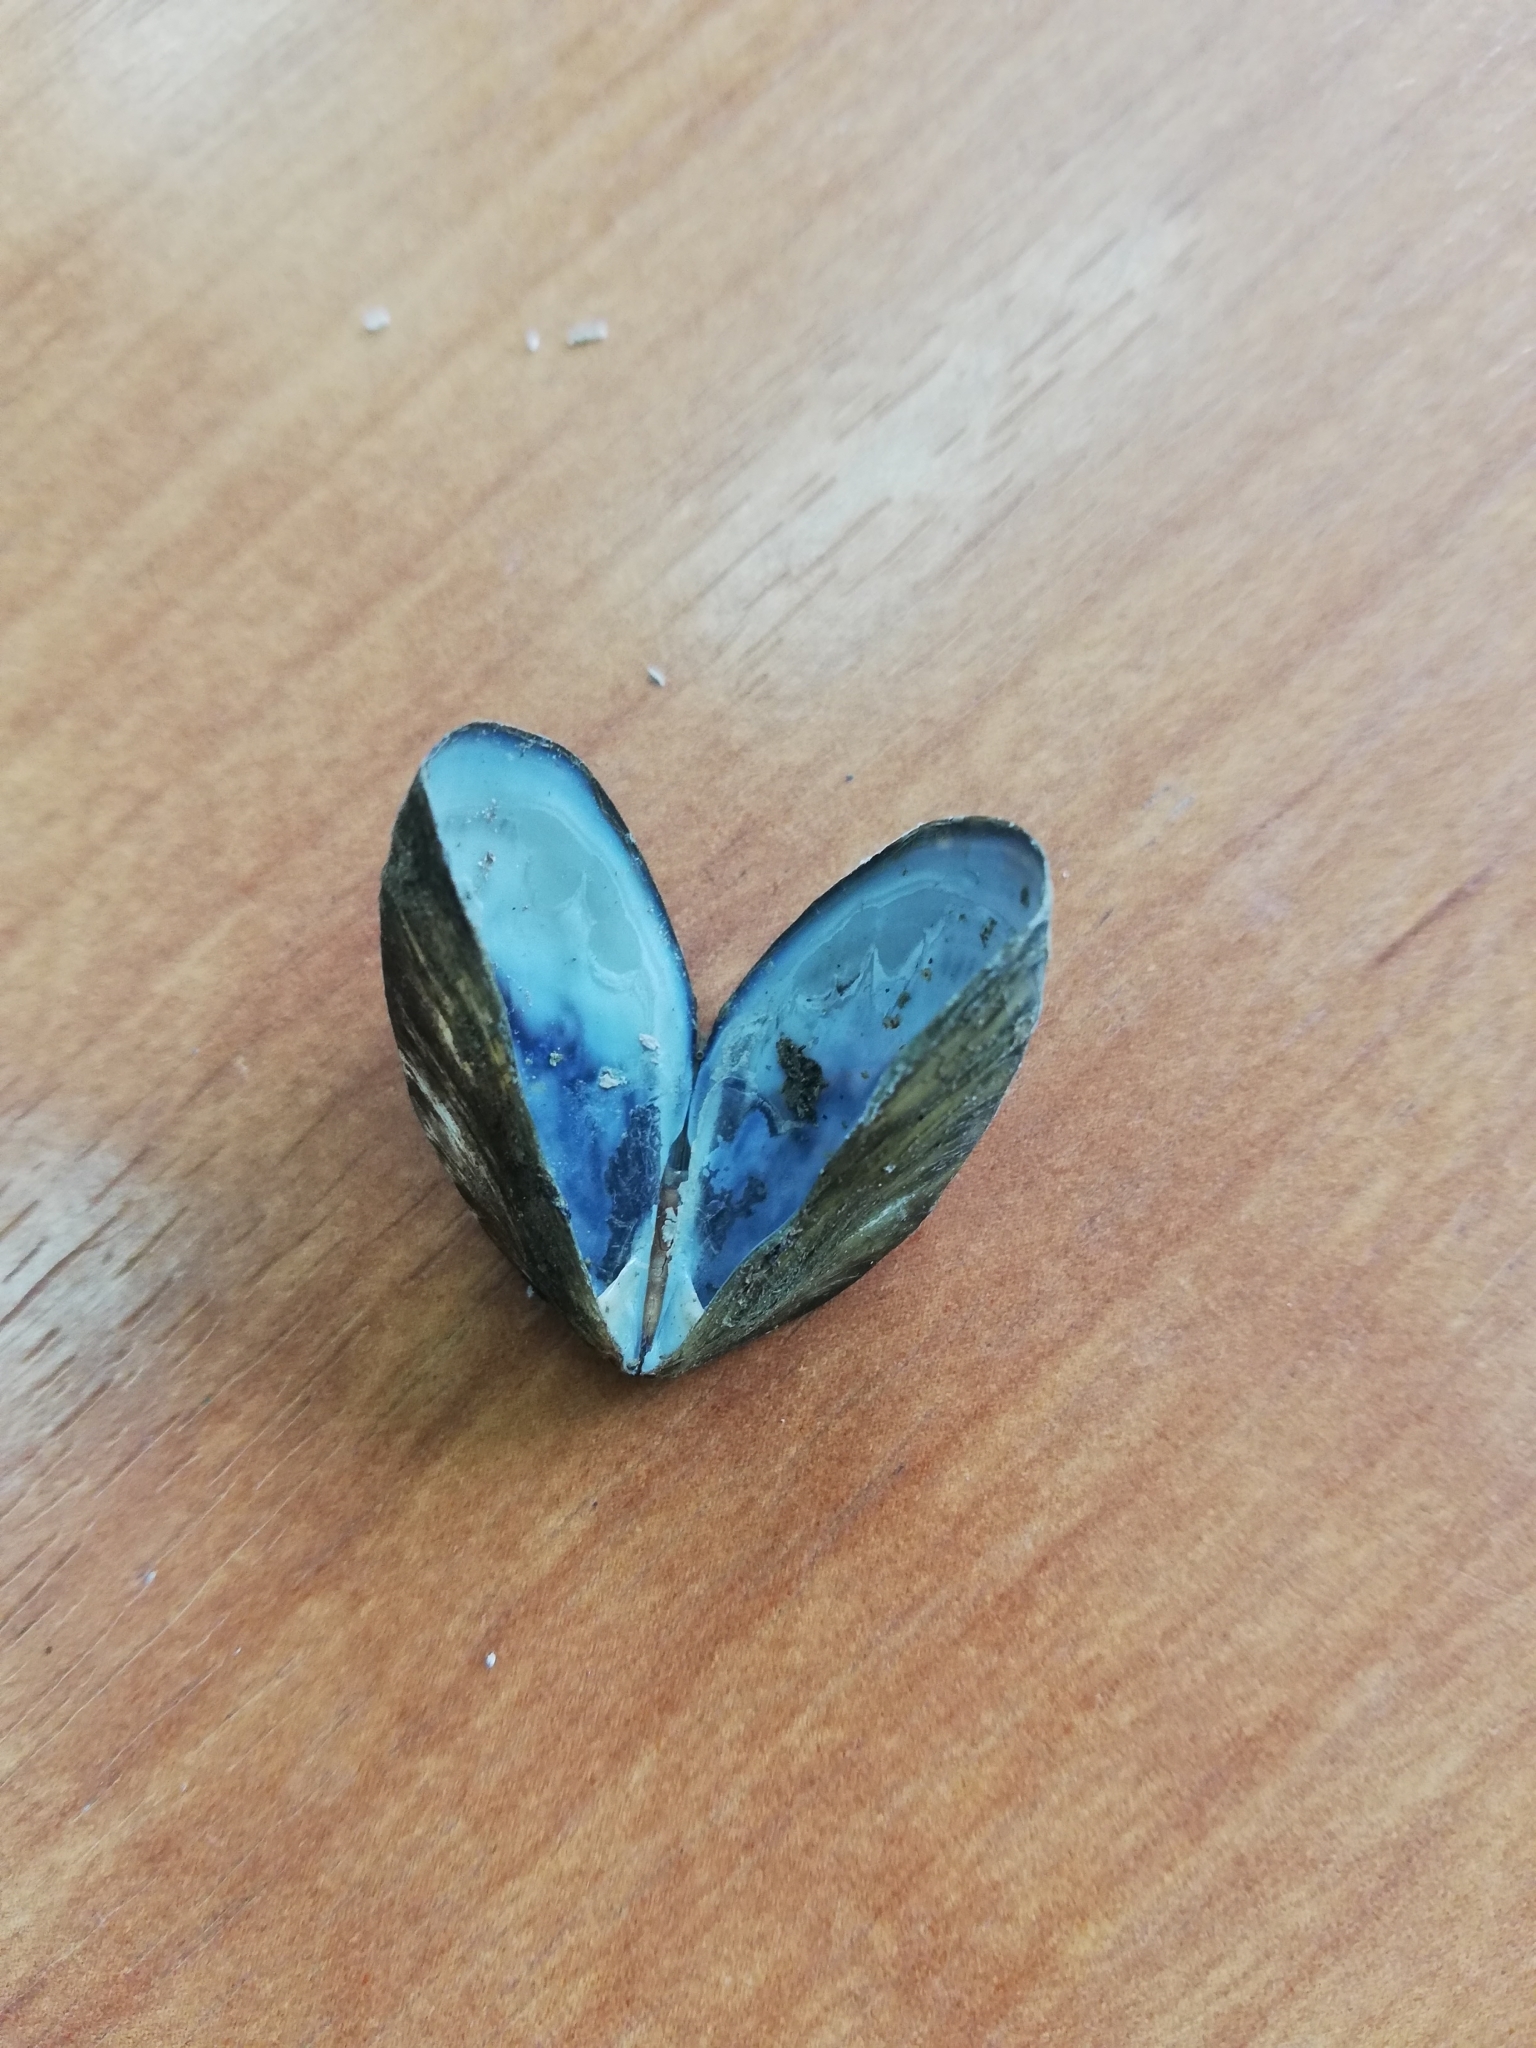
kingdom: Animalia
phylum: Mollusca
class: Bivalvia
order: Myida
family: Dreissenidae
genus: Dreissena
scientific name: Dreissena polymorpha
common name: Zebra mussel
